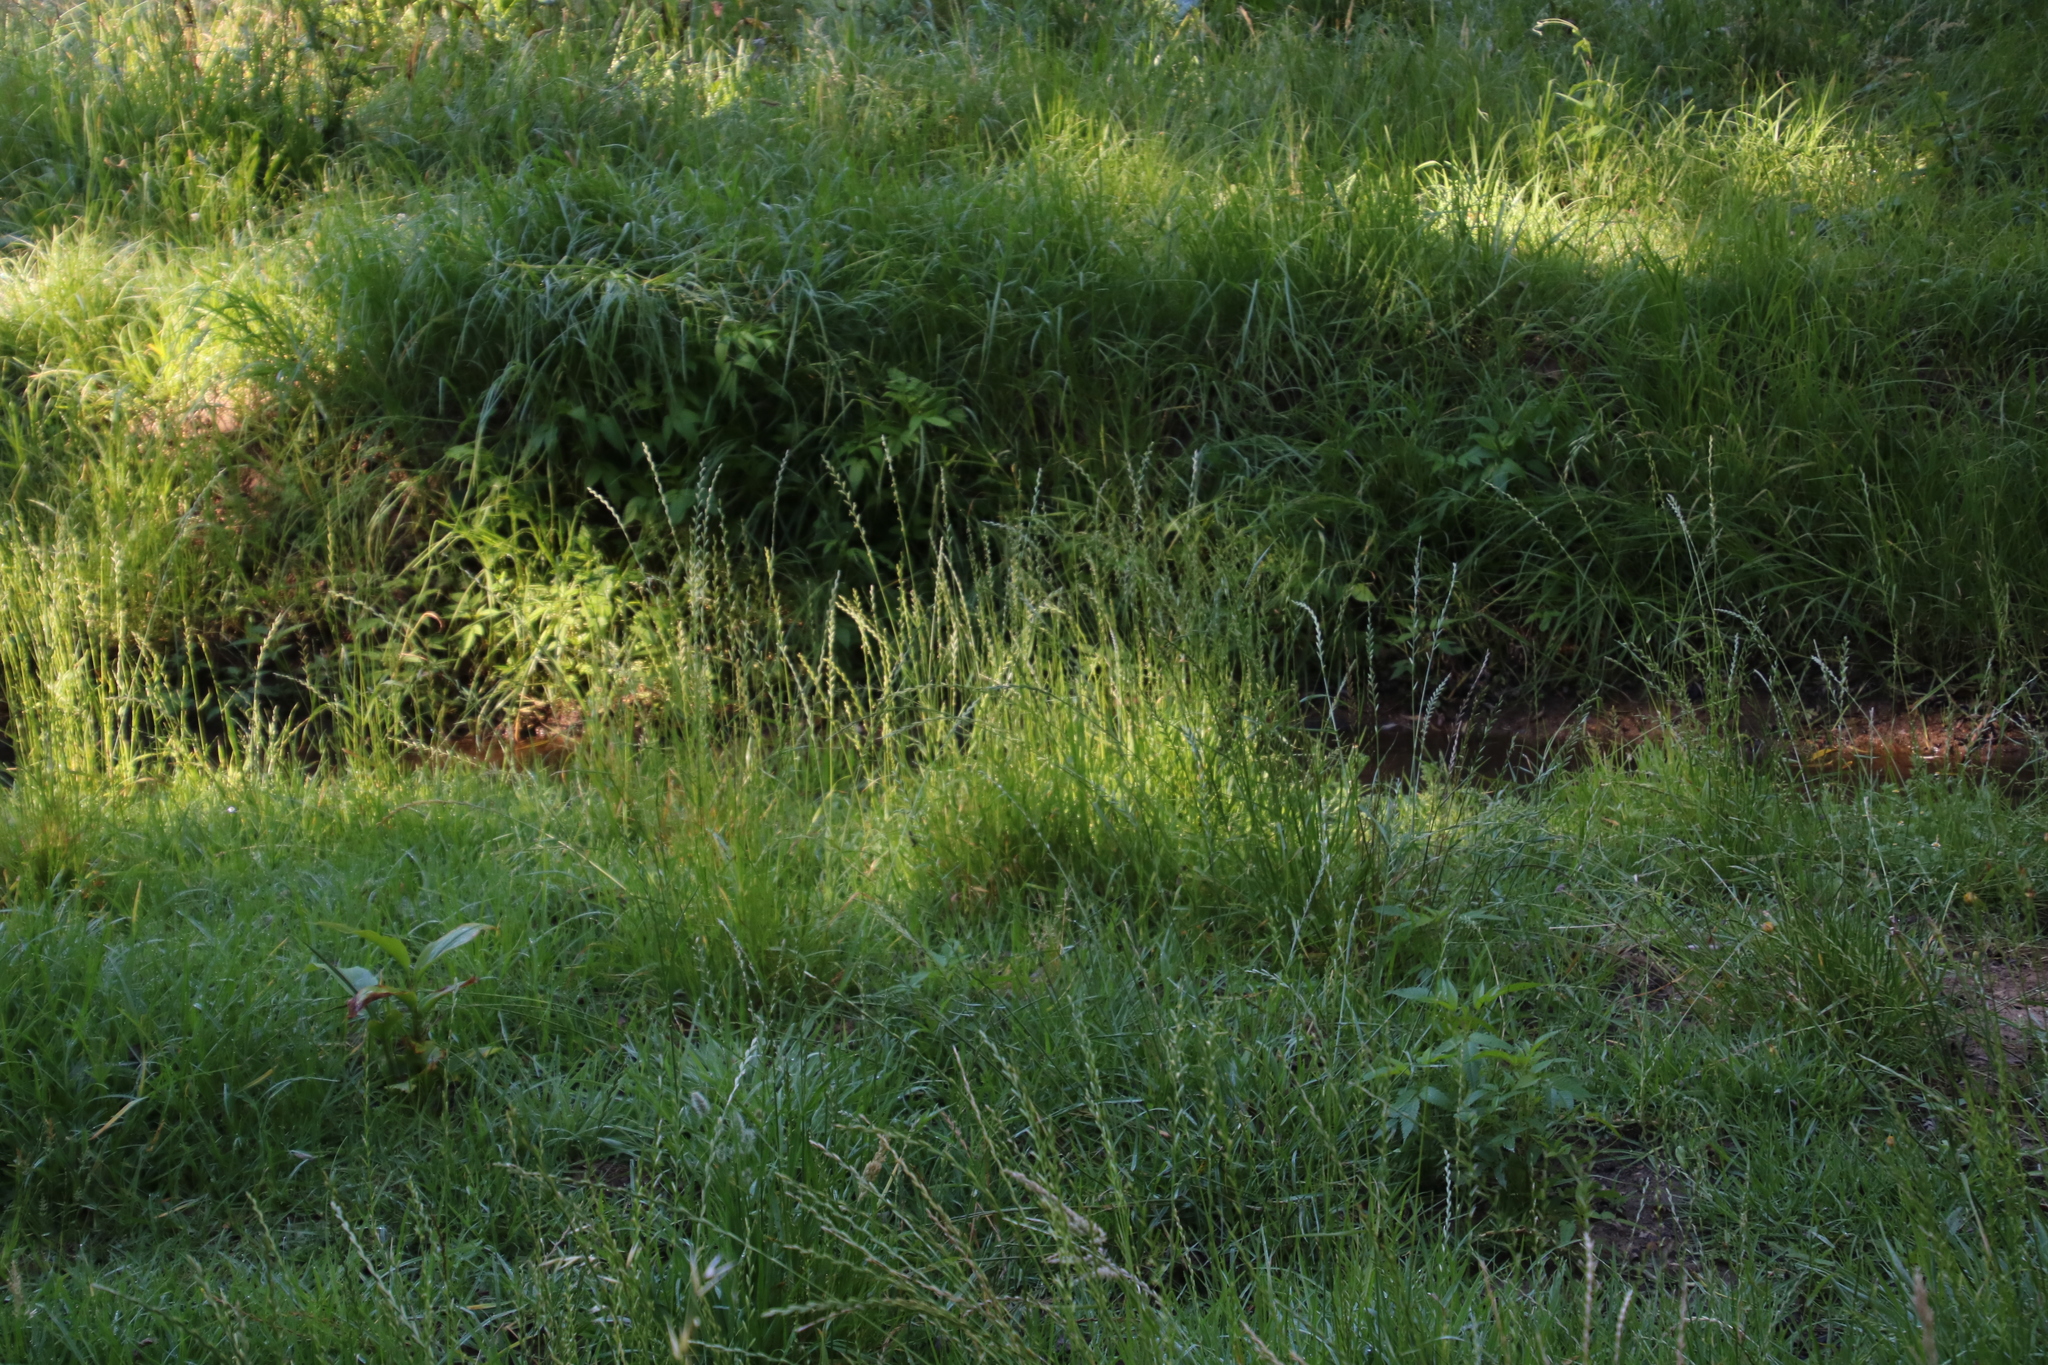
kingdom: Plantae
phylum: Tracheophyta
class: Liliopsida
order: Poales
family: Poaceae
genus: Lolium
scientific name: Lolium perenne
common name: Perennial ryegrass
